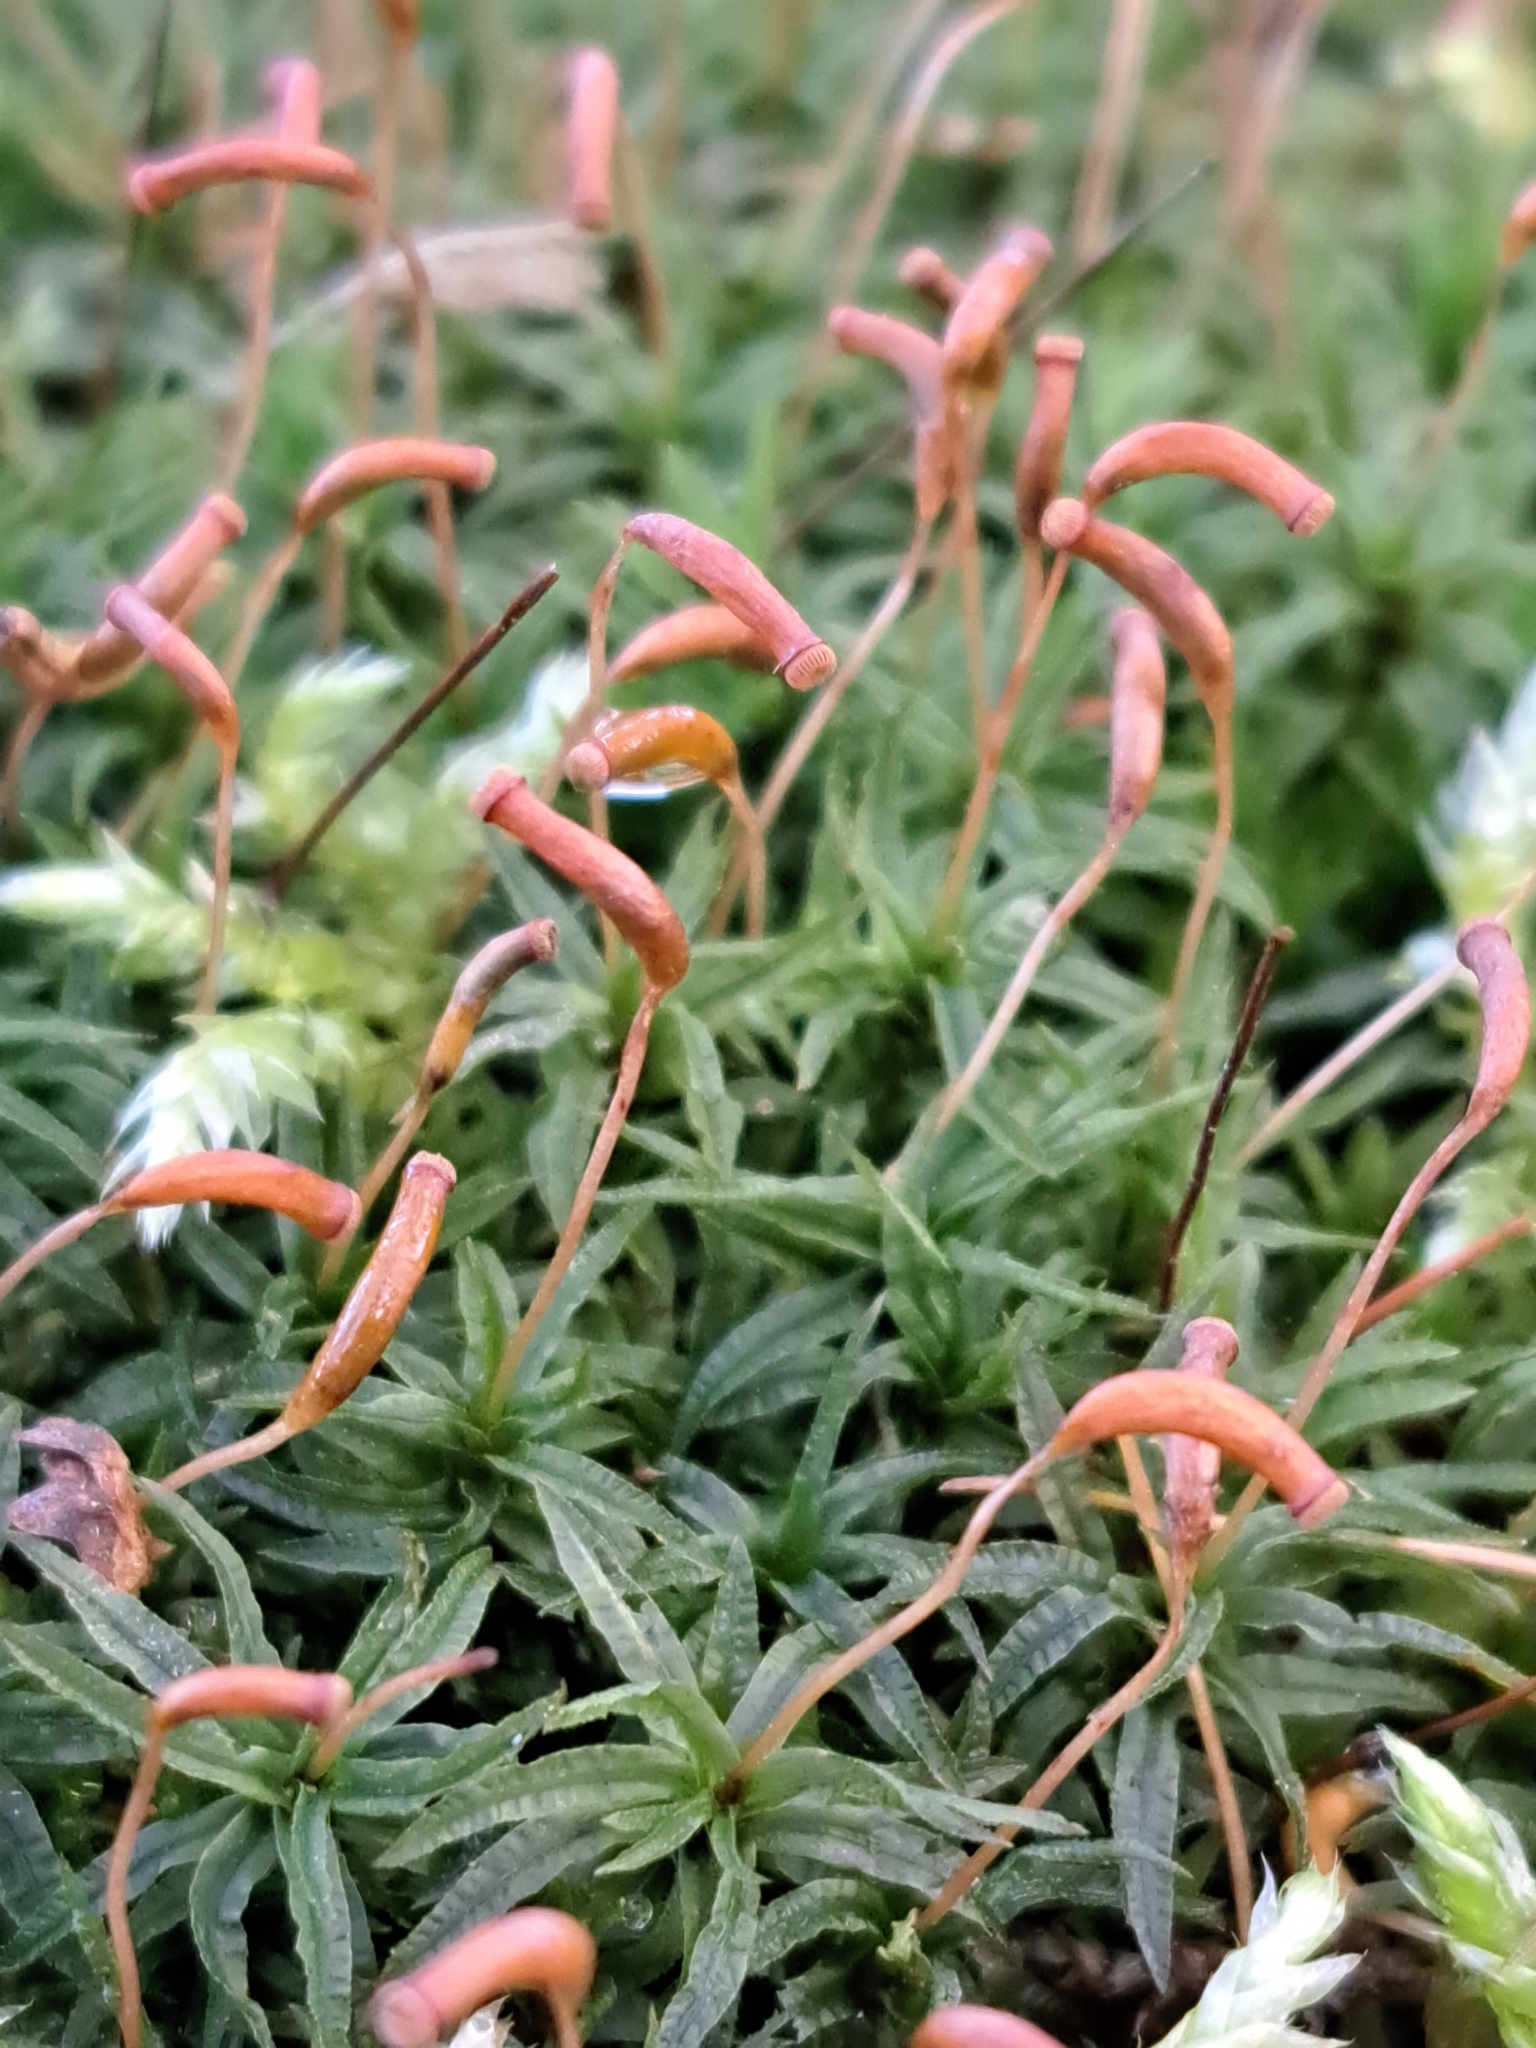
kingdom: Plantae
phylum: Bryophyta
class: Polytrichopsida
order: Polytrichales
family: Polytrichaceae
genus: Atrichum
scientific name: Atrichum undulatum
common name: Common smoothcap
